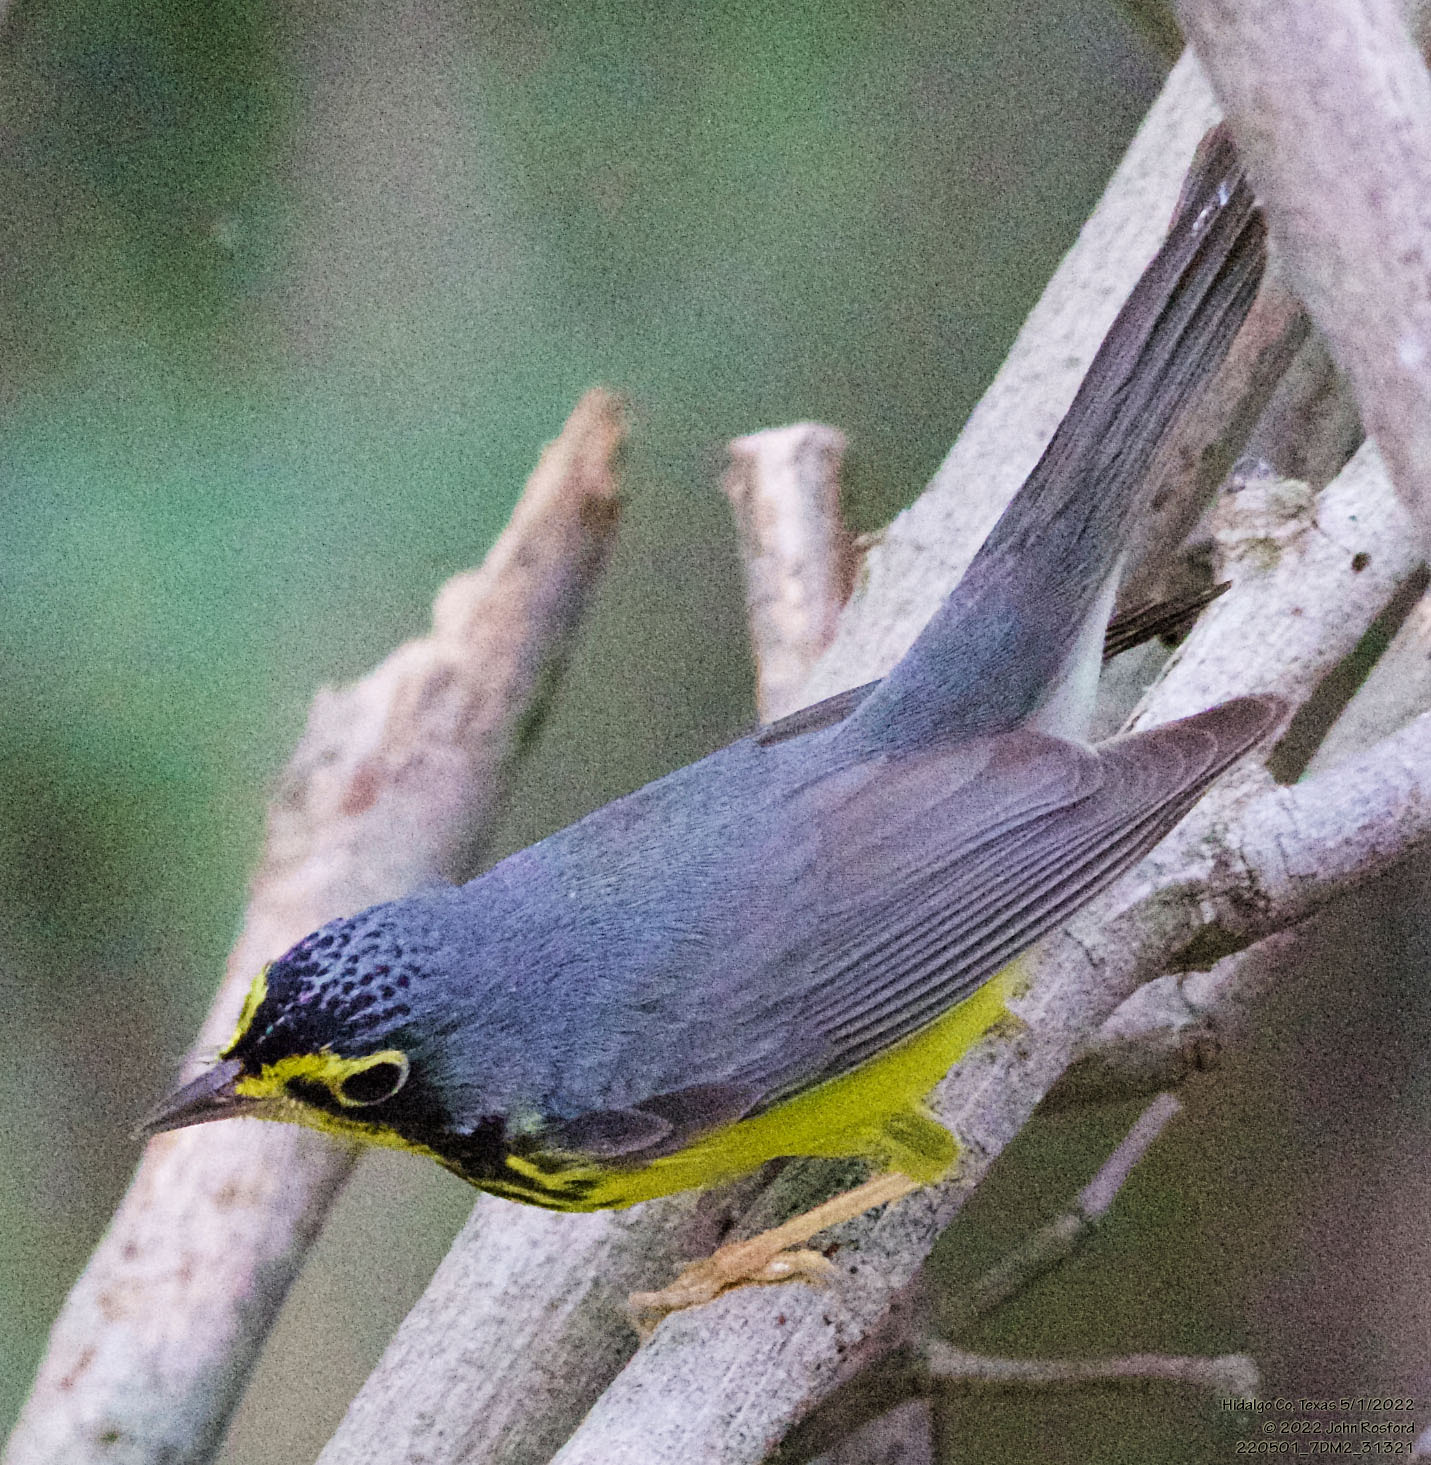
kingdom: Animalia
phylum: Chordata
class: Aves
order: Passeriformes
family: Parulidae
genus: Cardellina
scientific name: Cardellina canadensis
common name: Canada warbler
